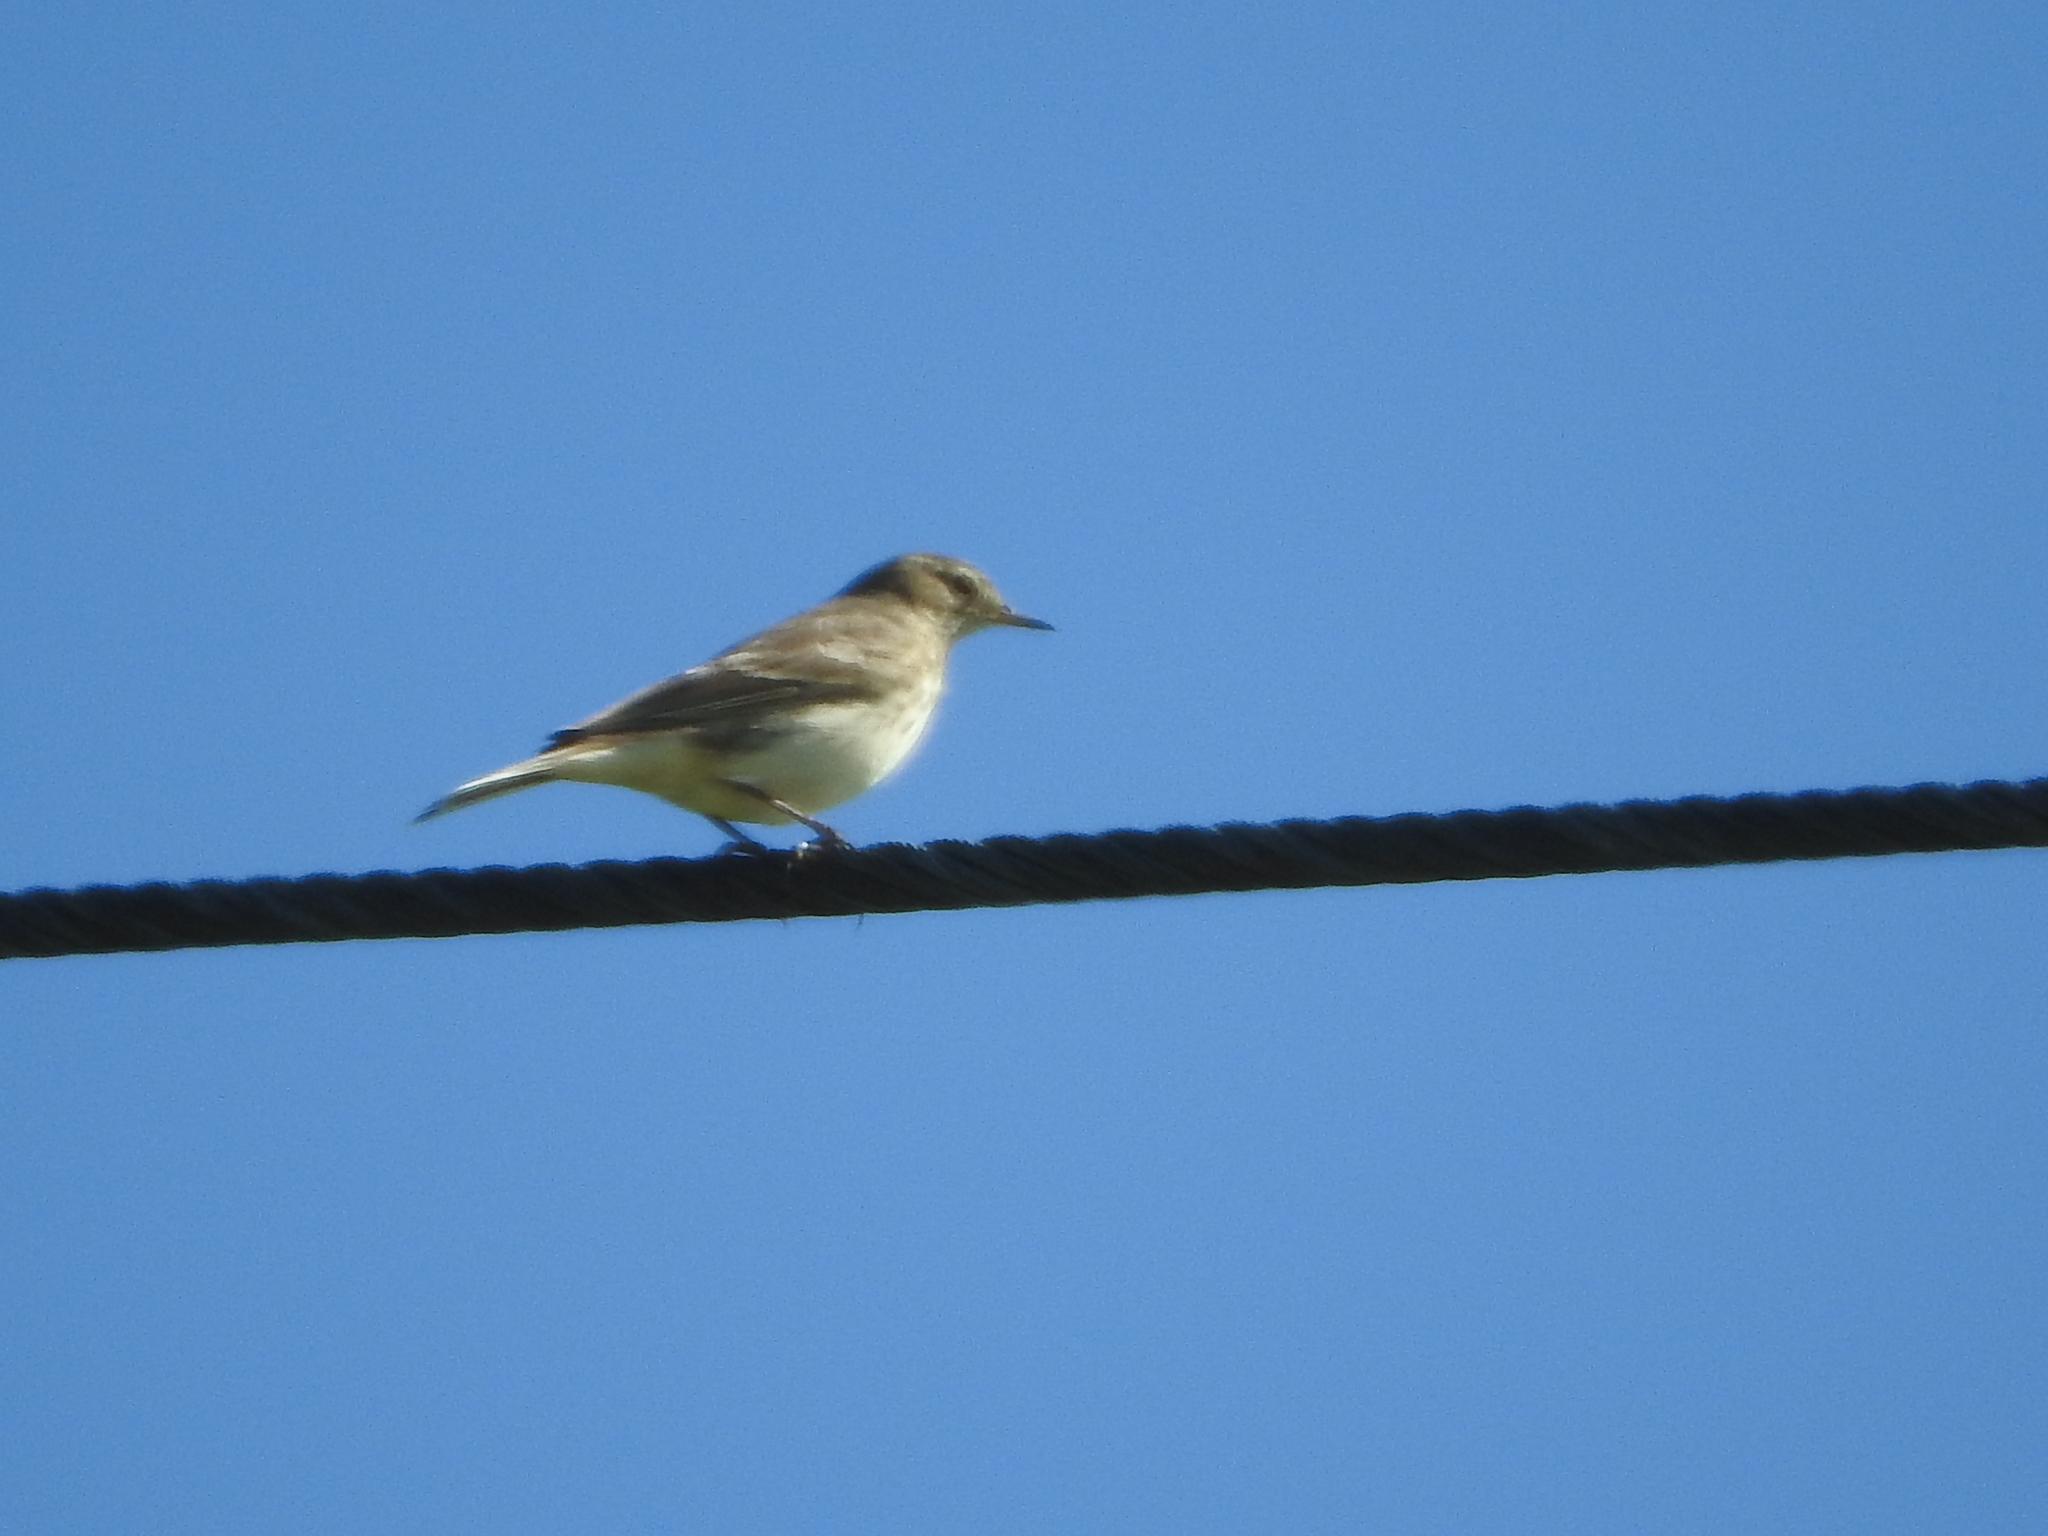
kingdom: Animalia
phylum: Chordata
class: Aves
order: Passeriformes
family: Motacillidae
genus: Anthus
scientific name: Anthus spinoletta
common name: Water pipit
